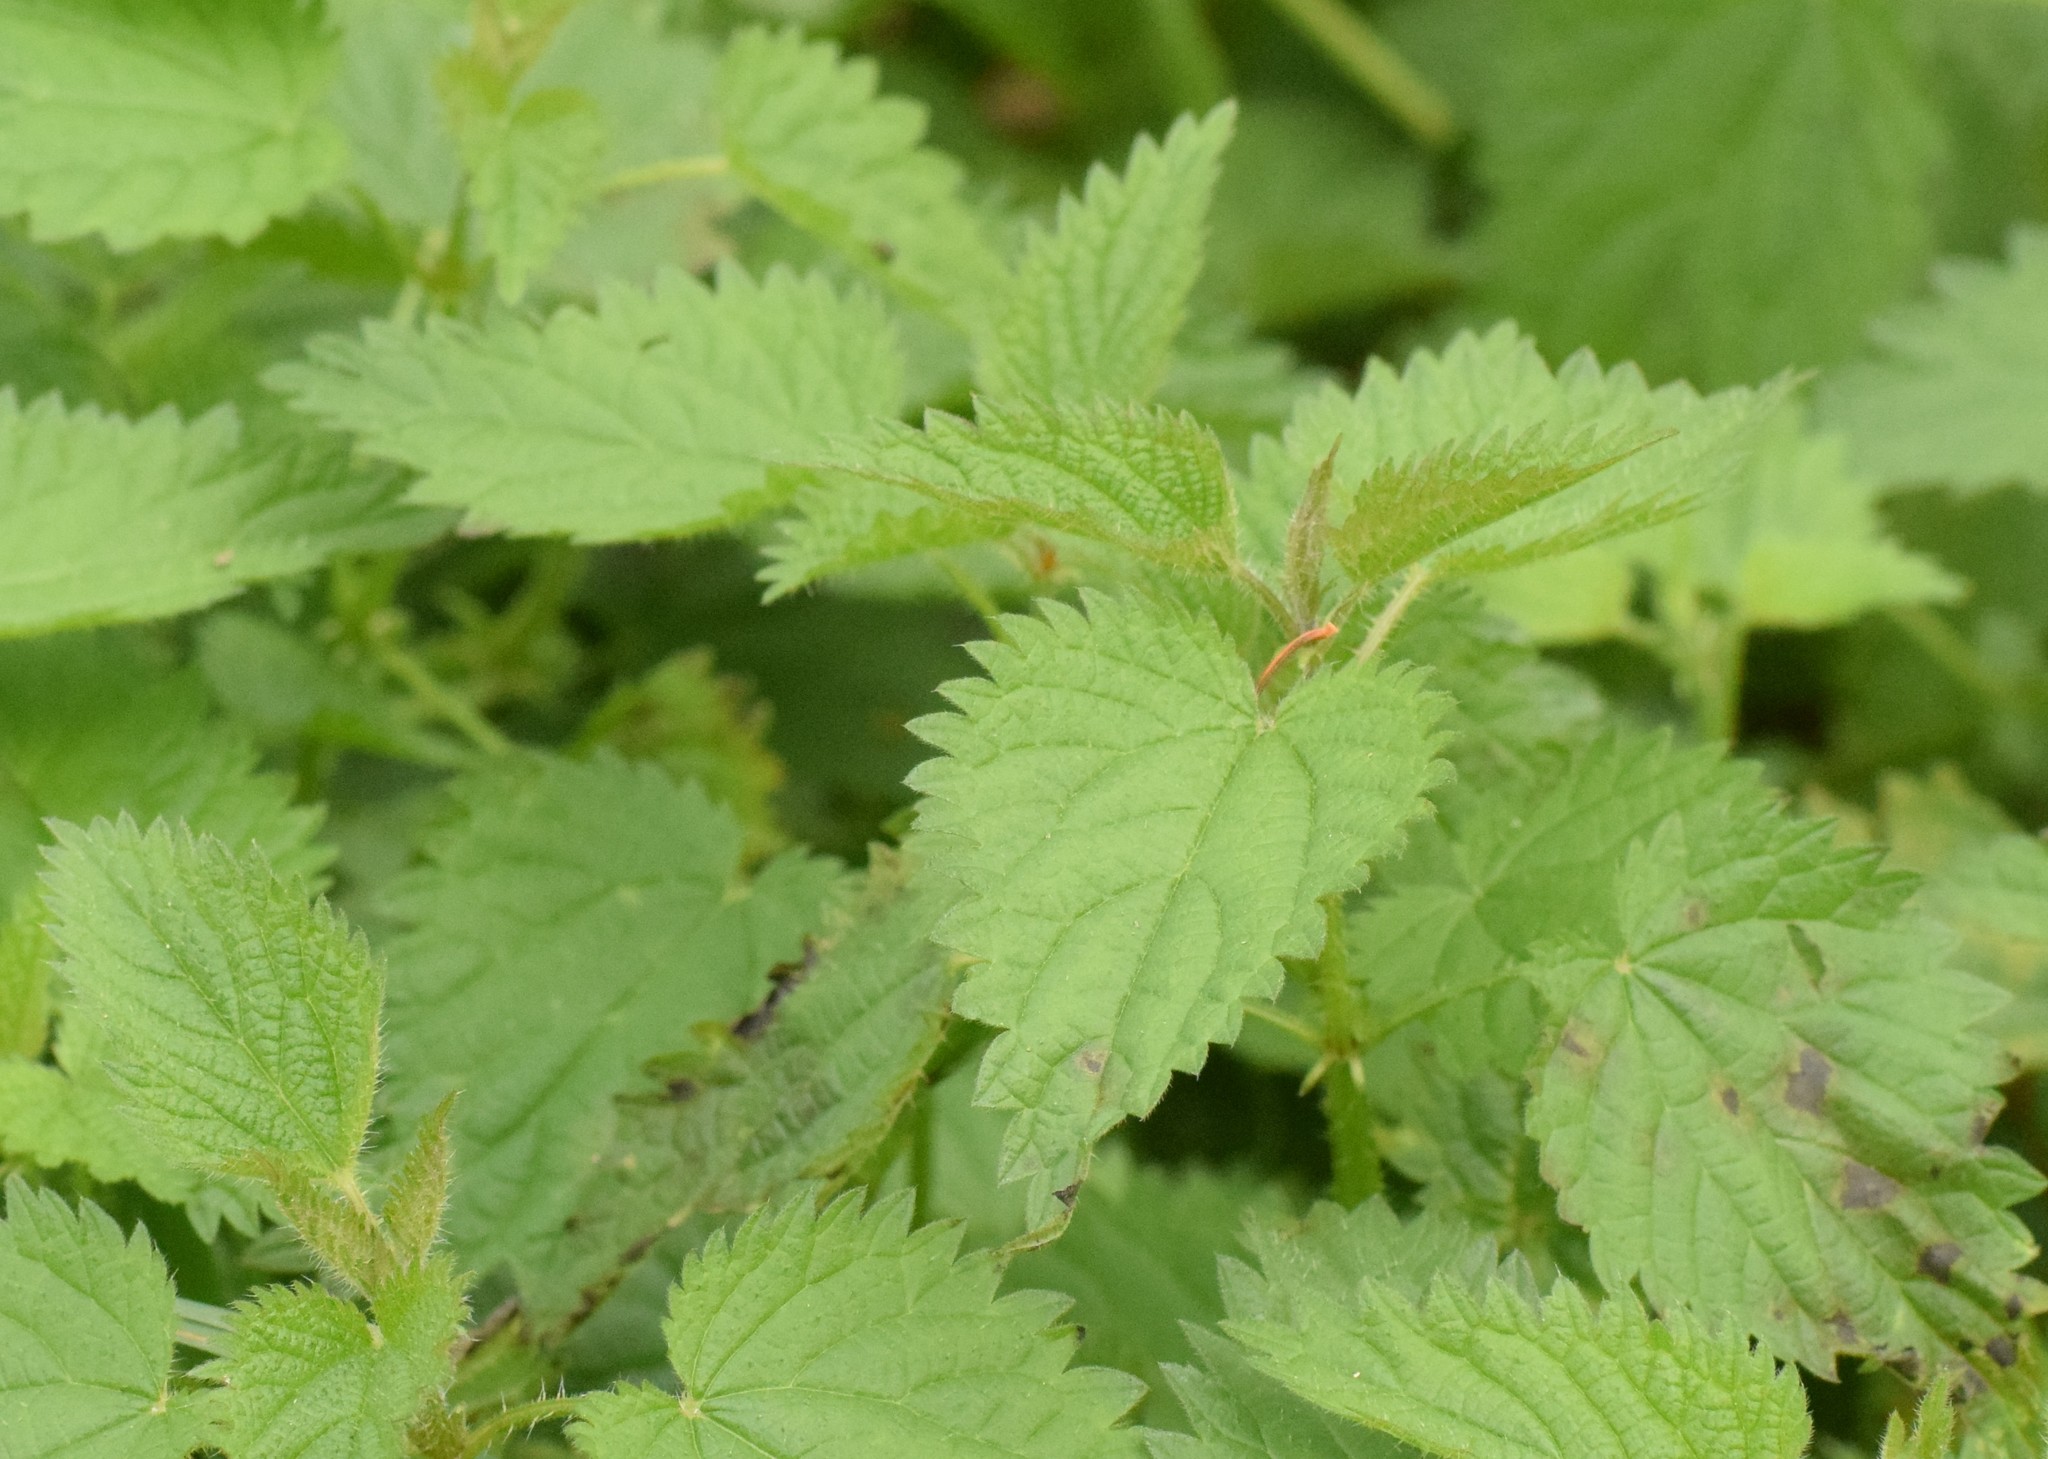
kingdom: Plantae
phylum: Tracheophyta
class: Magnoliopsida
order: Rosales
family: Urticaceae
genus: Urtica
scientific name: Urtica dioica
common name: Common nettle
